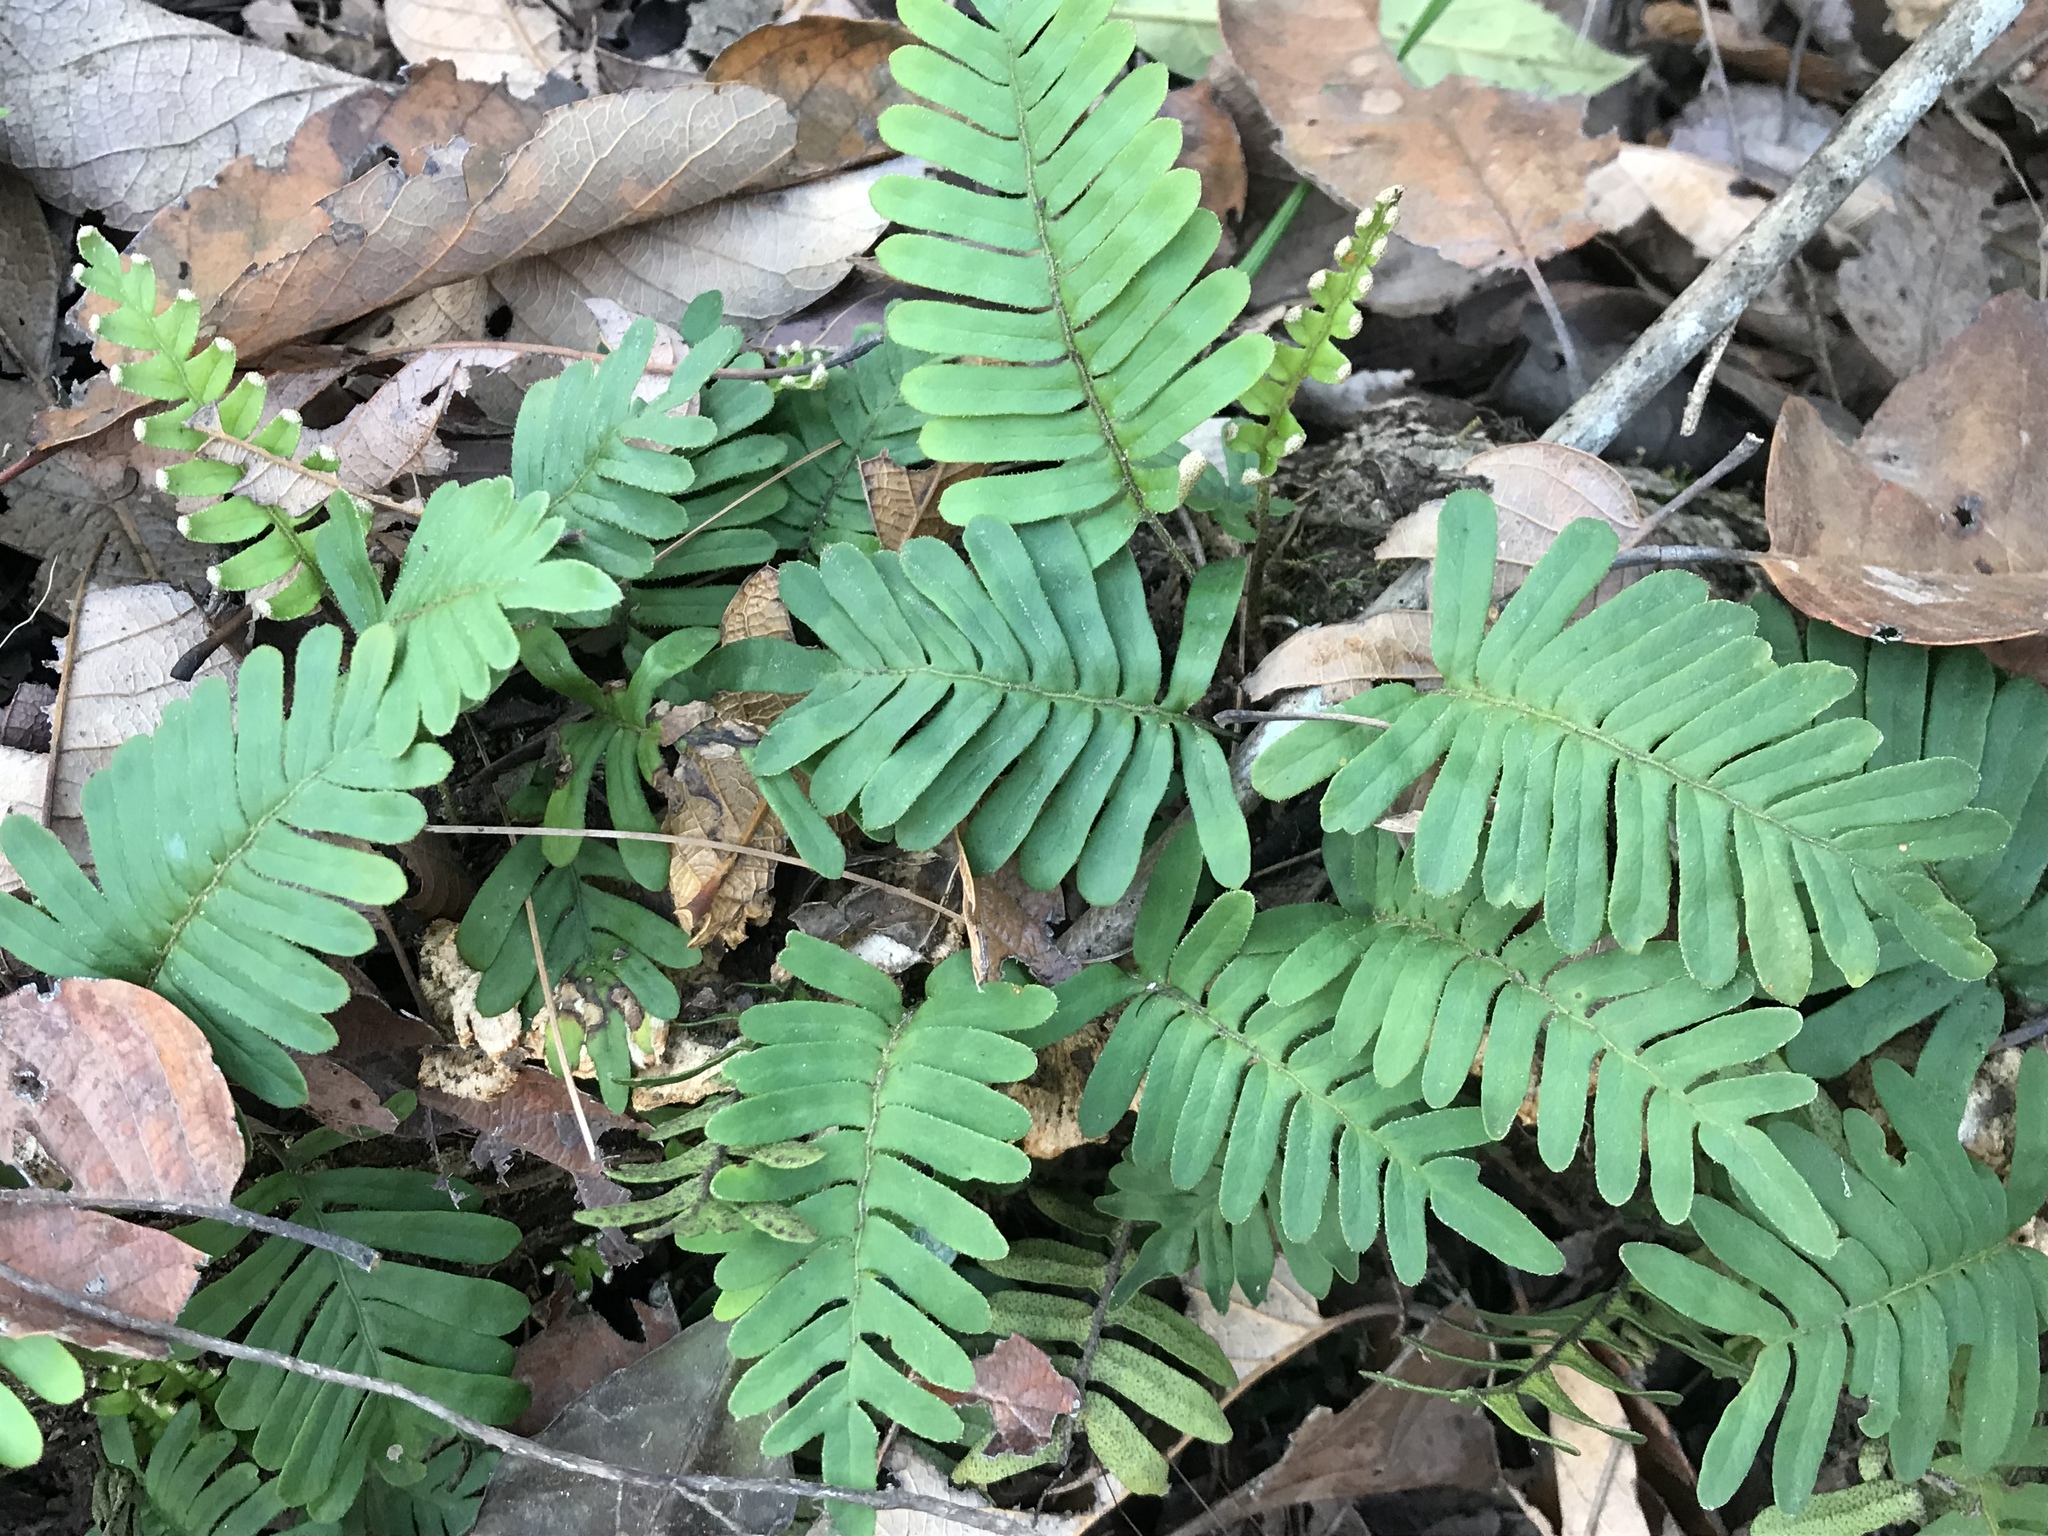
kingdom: Plantae
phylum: Tracheophyta
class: Polypodiopsida
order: Polypodiales
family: Polypodiaceae
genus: Pleopeltis
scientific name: Pleopeltis michauxiana
